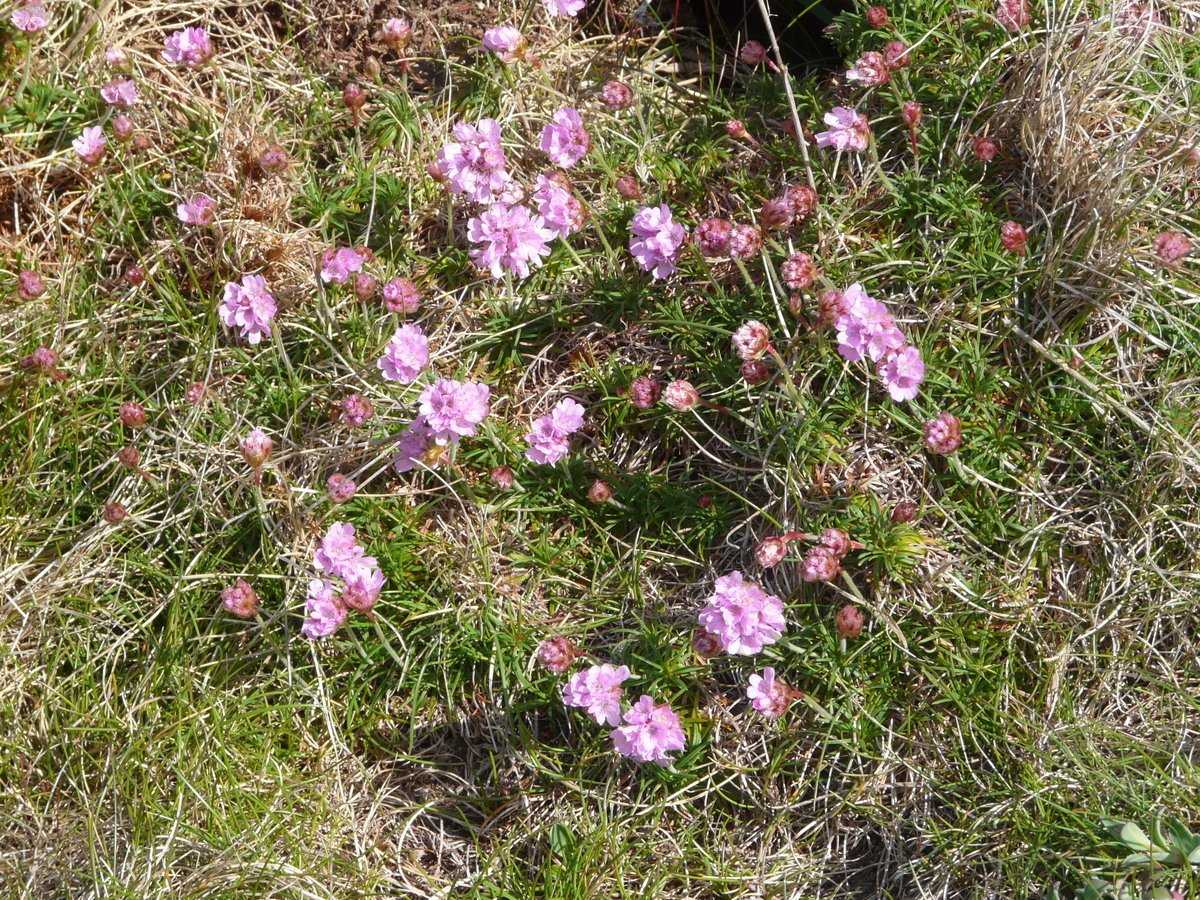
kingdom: Plantae
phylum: Tracheophyta
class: Magnoliopsida
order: Caryophyllales
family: Plumbaginaceae
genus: Armeria
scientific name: Armeria maritima
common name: Thrift
